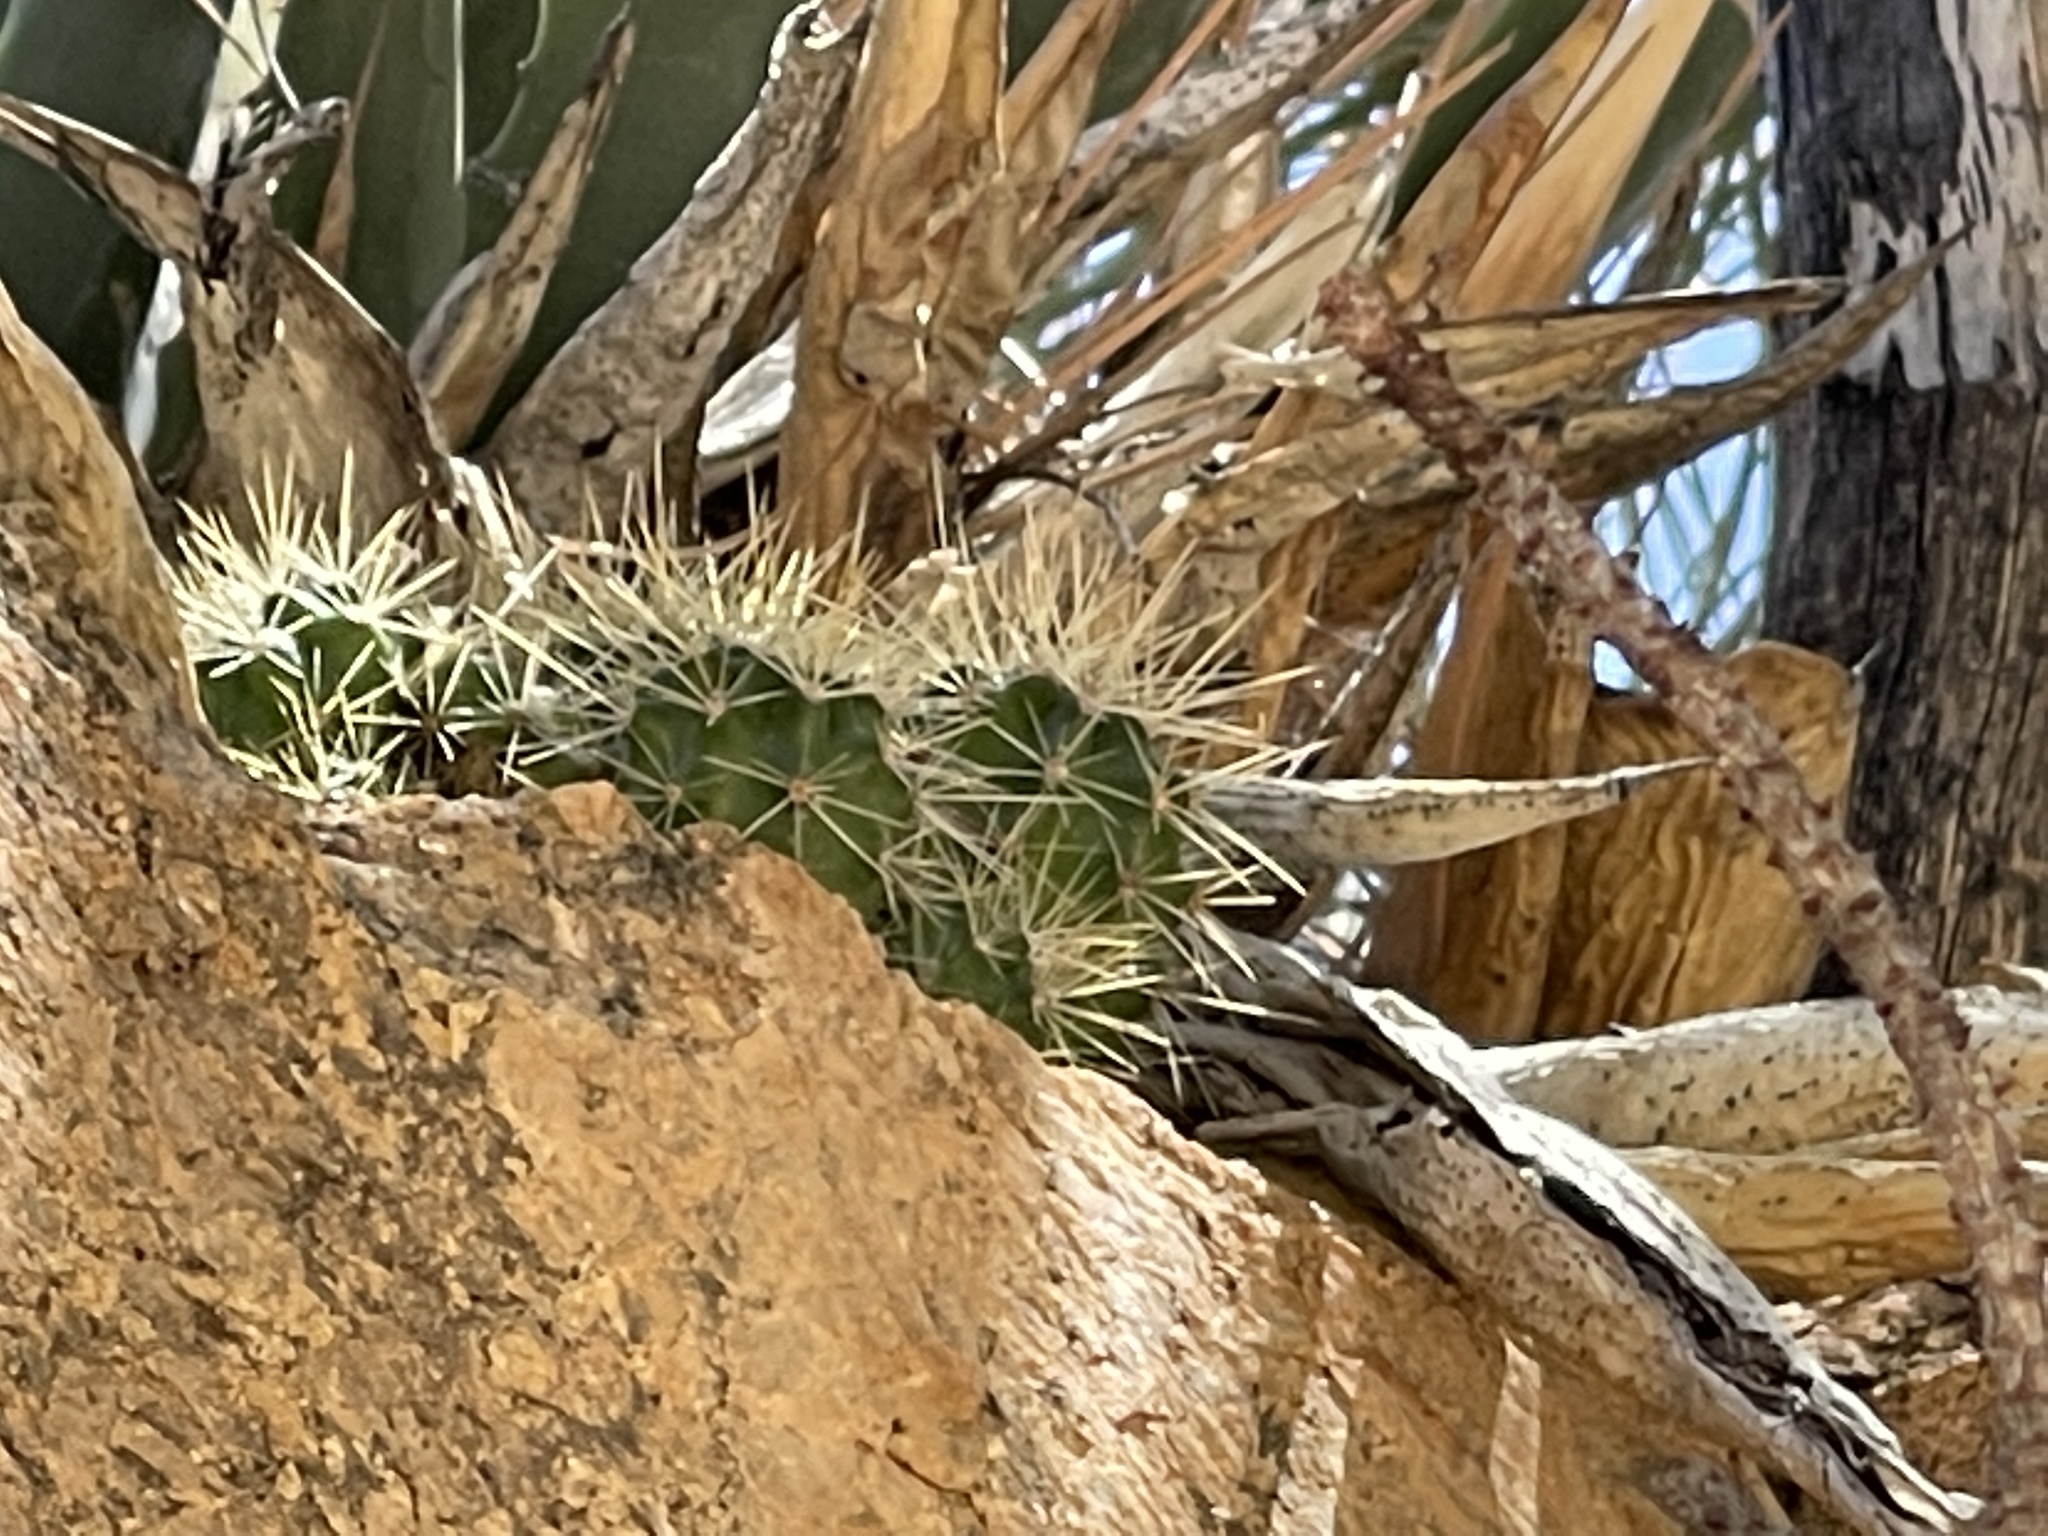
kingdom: Plantae
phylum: Tracheophyta
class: Magnoliopsida
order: Caryophyllales
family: Cactaceae
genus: Echinocereus
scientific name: Echinocereus bakeri
